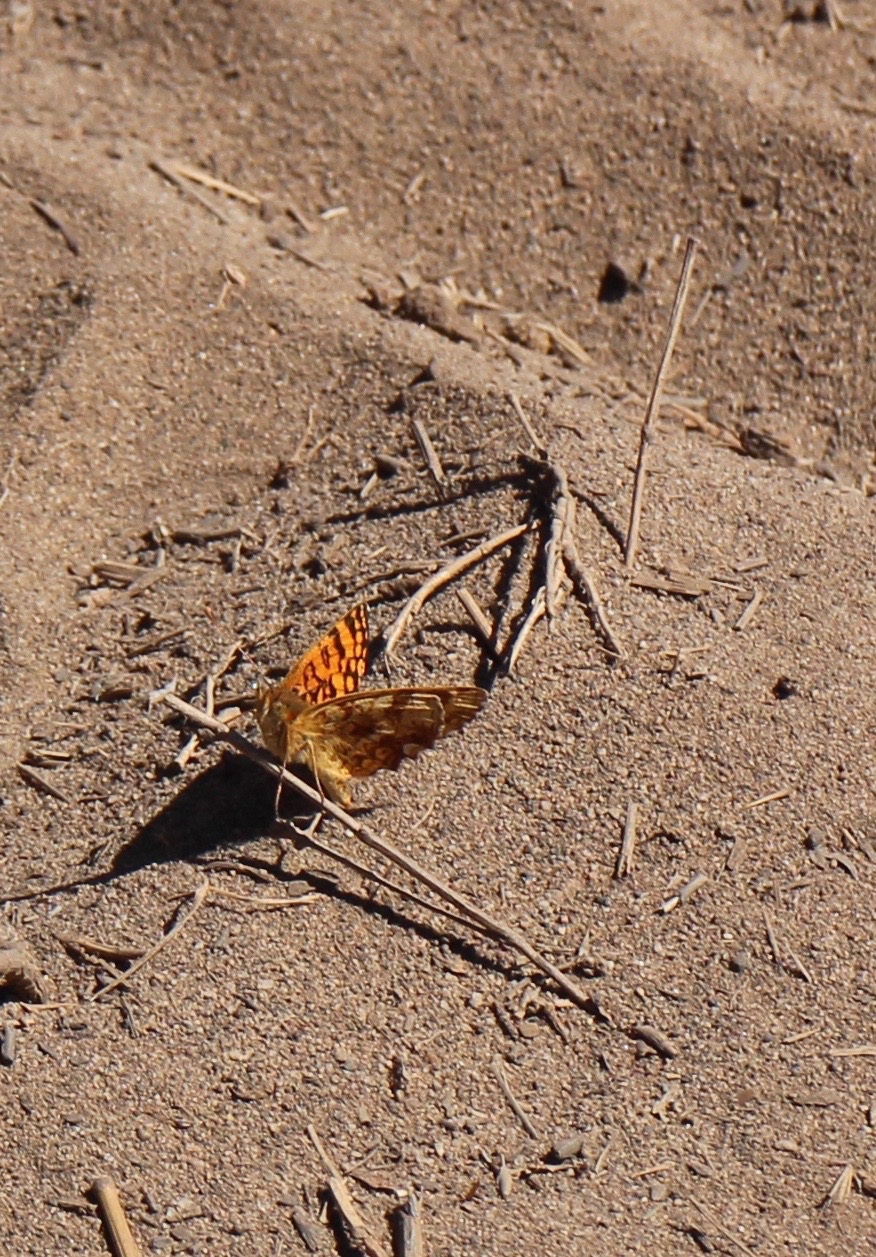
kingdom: Animalia
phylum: Arthropoda
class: Insecta
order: Lepidoptera
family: Nymphalidae
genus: Eresia
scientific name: Eresia aveyrona
